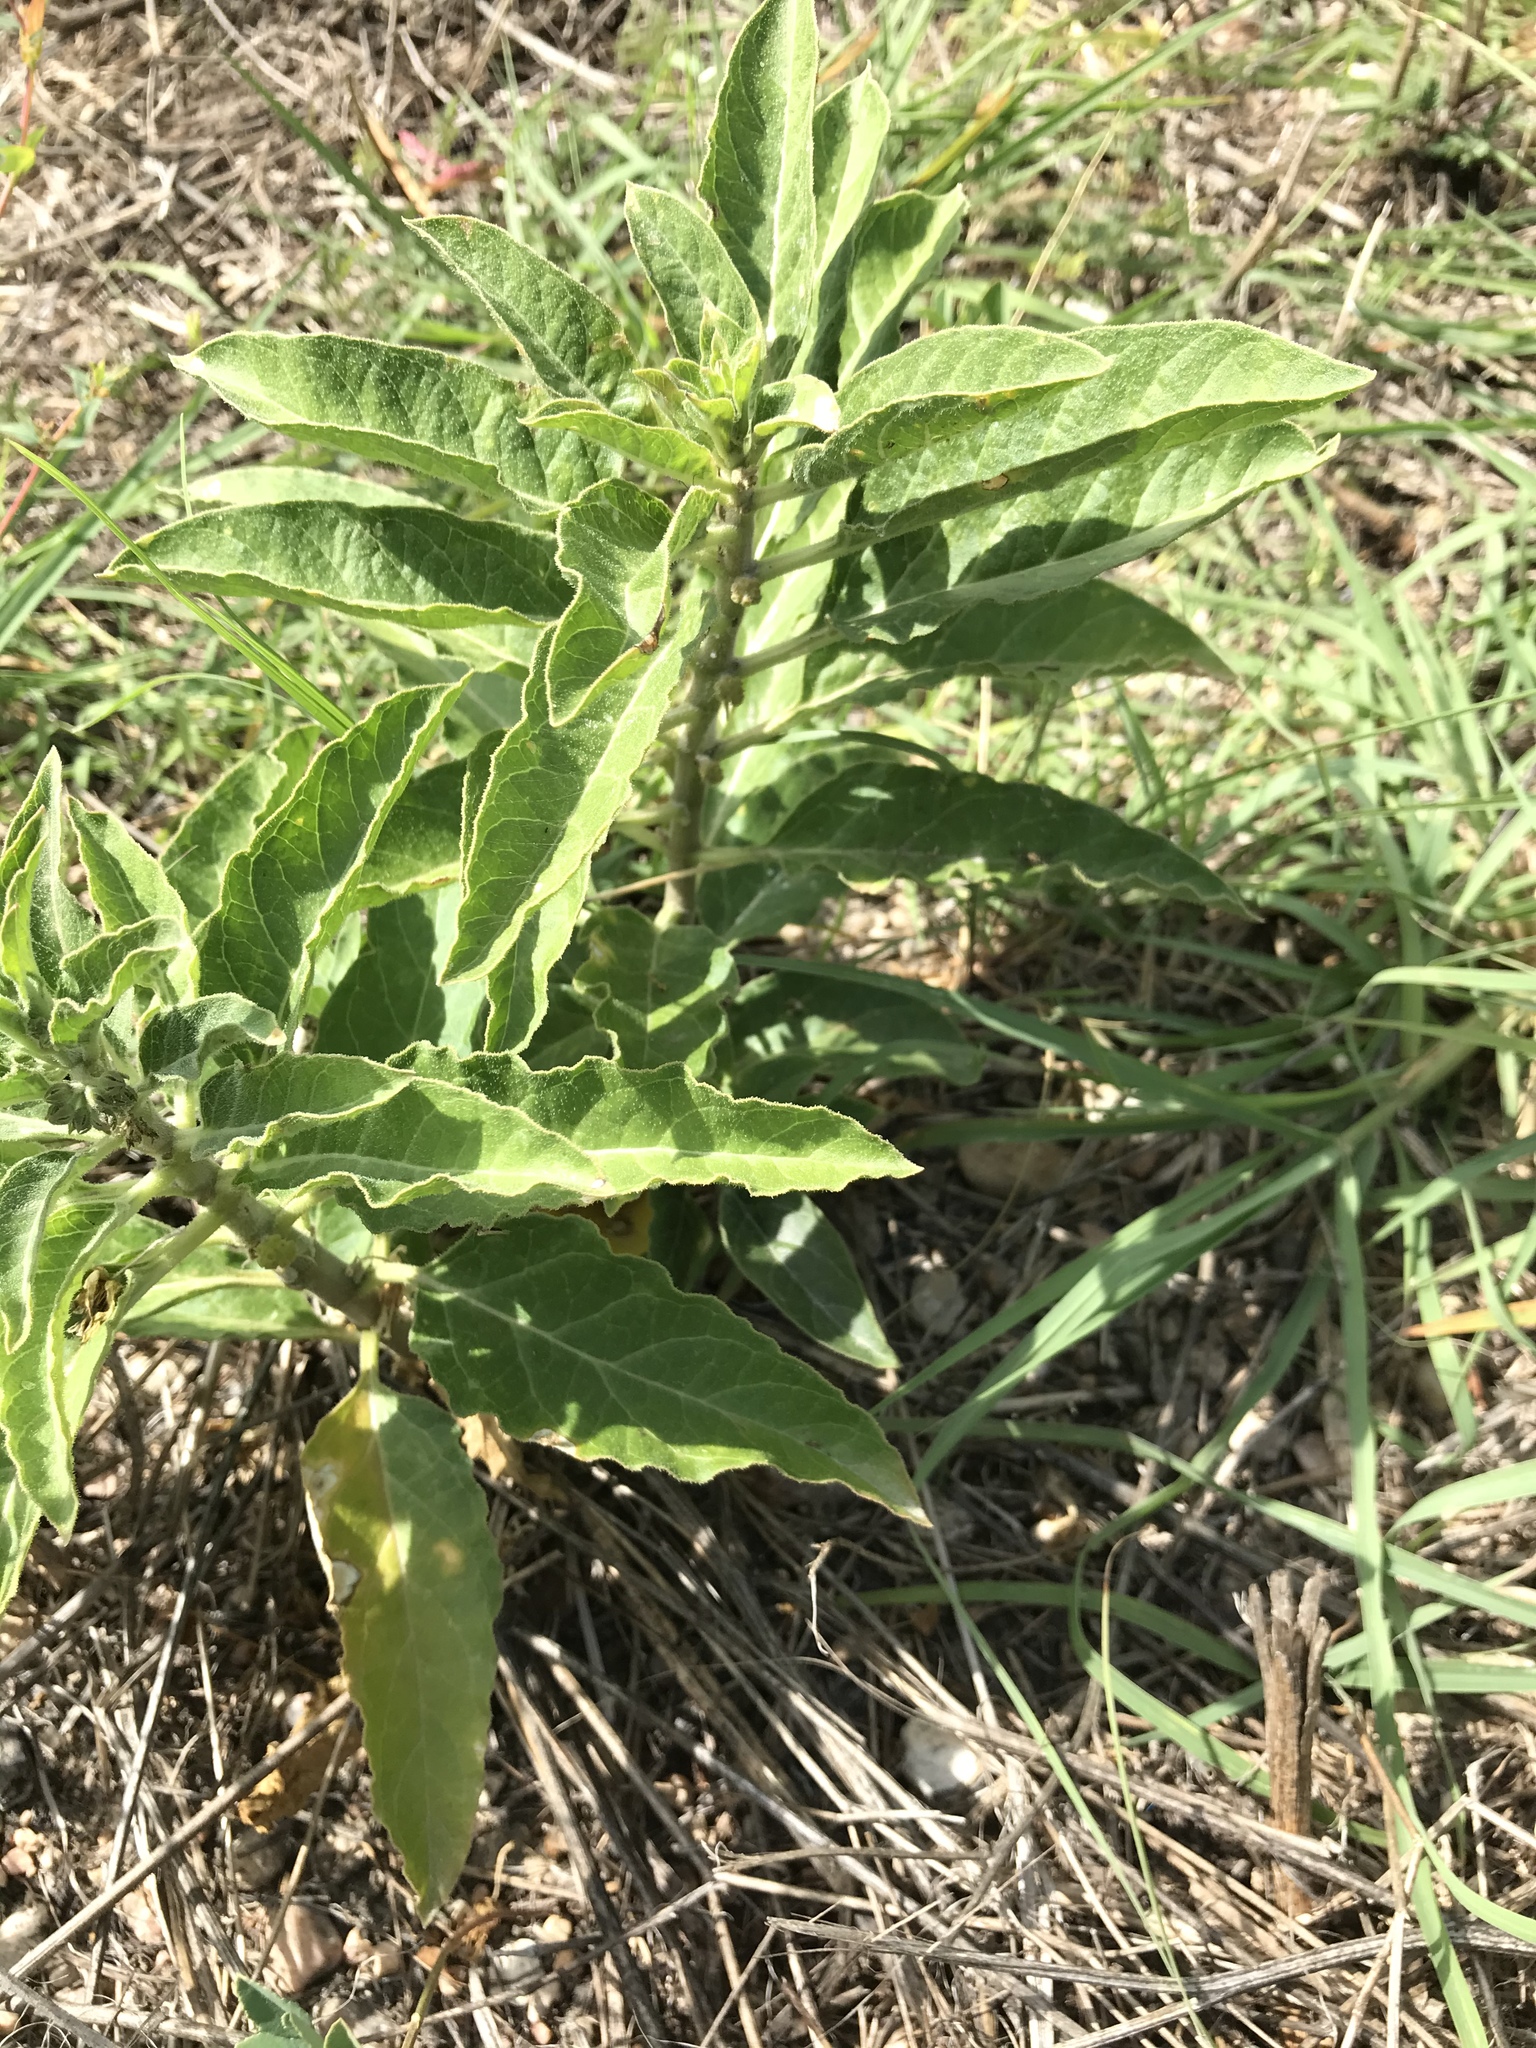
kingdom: Plantae
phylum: Tracheophyta
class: Magnoliopsida
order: Gentianales
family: Apocynaceae
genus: Asclepias
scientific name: Asclepias oenotheroides
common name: Zizotes milkweed
